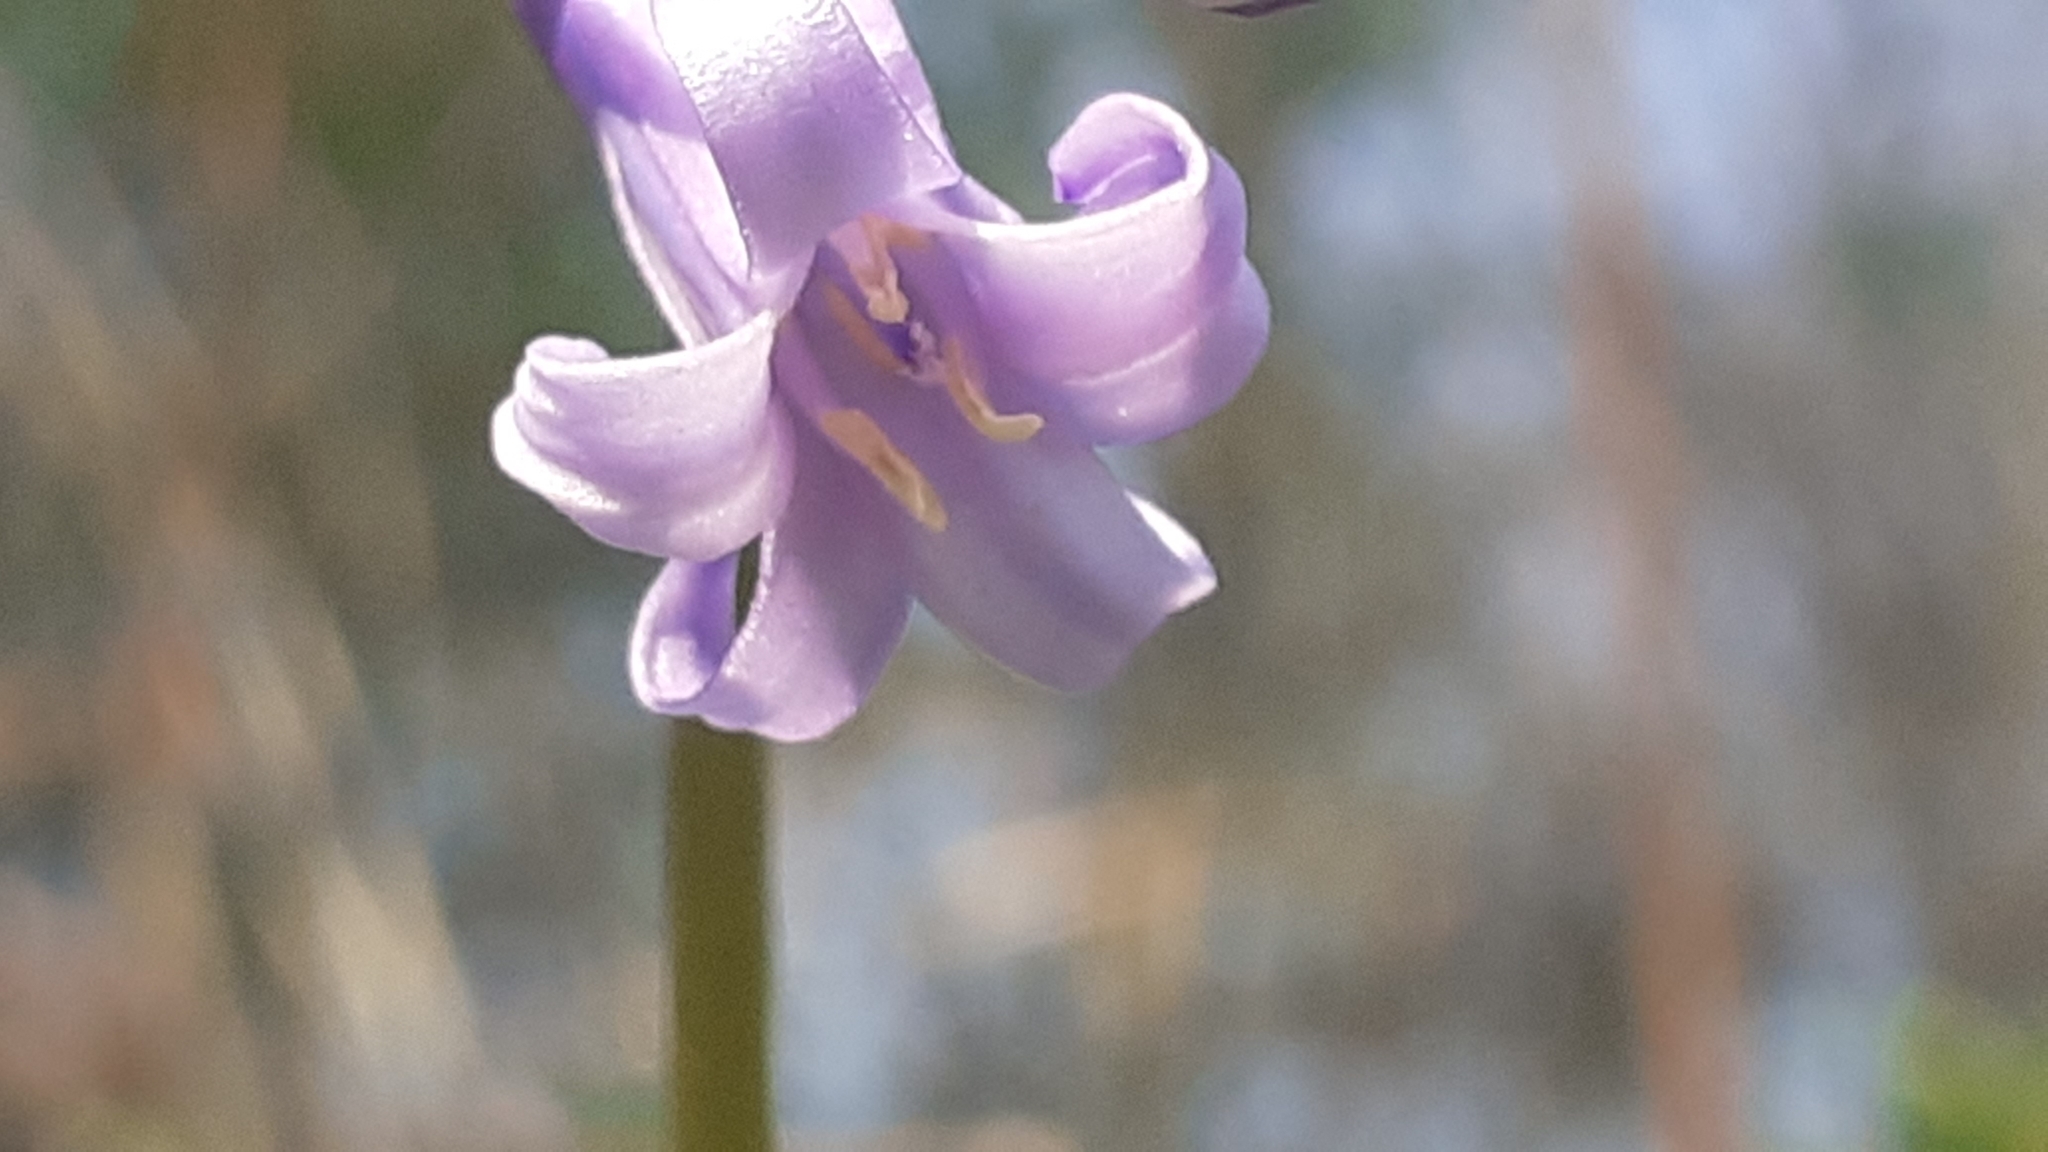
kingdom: Plantae
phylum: Tracheophyta
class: Liliopsida
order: Asparagales
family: Asparagaceae
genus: Hyacinthoides
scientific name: Hyacinthoides non-scripta
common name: Bluebell
